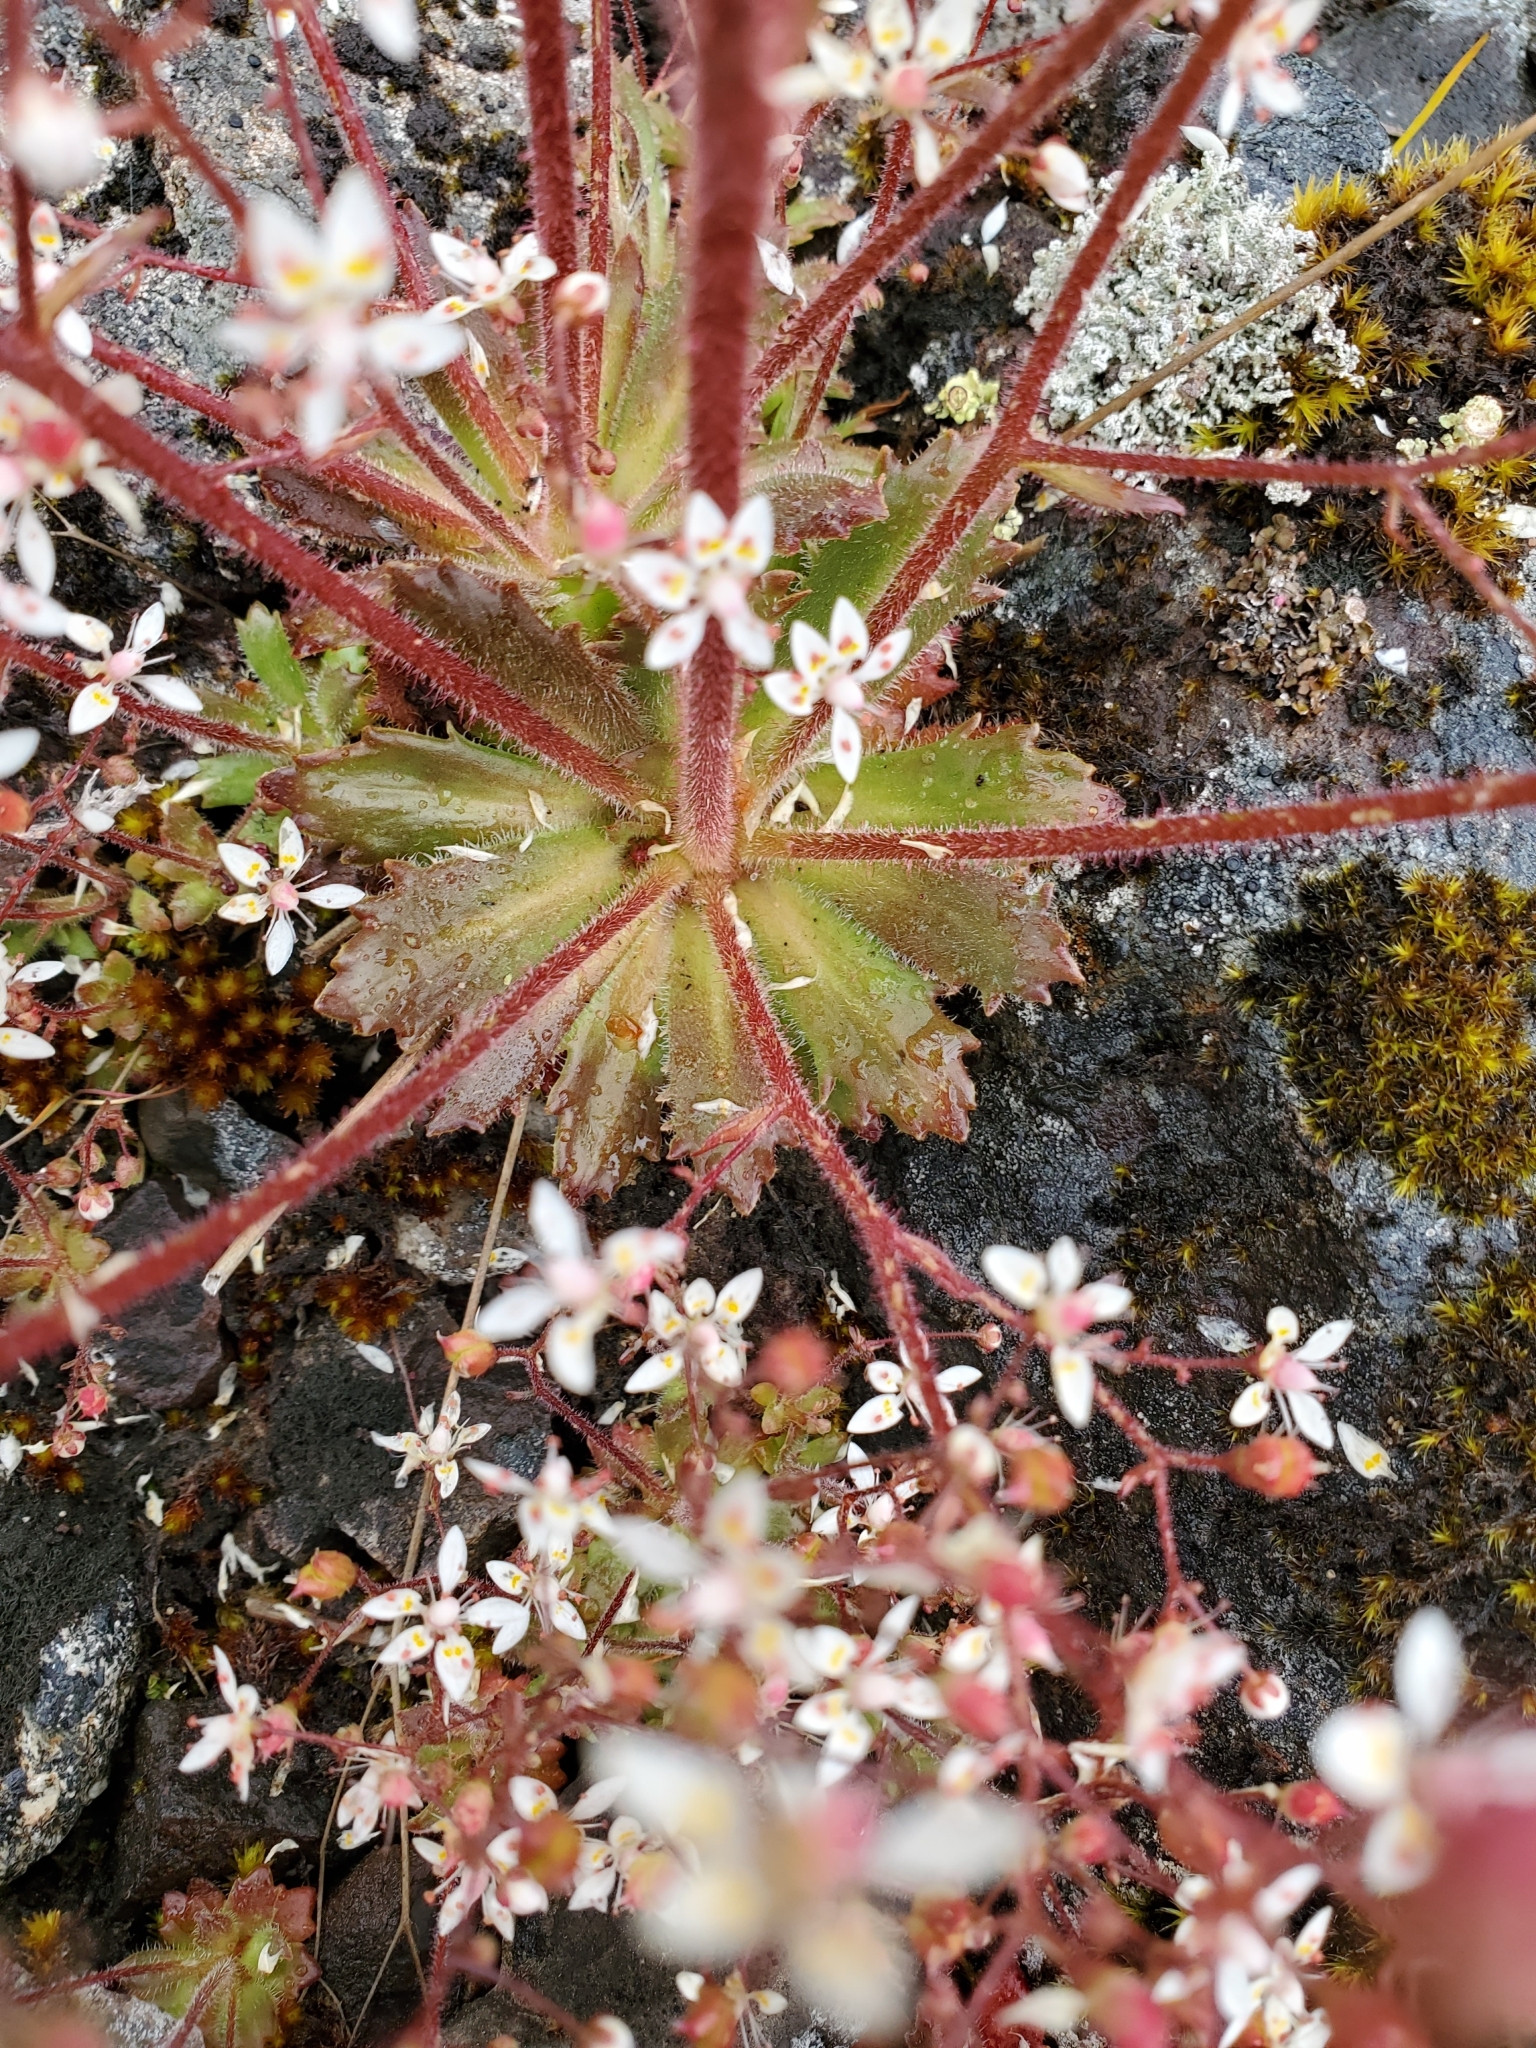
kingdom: Plantae
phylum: Tracheophyta
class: Magnoliopsida
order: Saxifragales
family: Saxifragaceae
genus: Micranthes
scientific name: Micranthes ferruginea
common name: Rusty saxifrage
